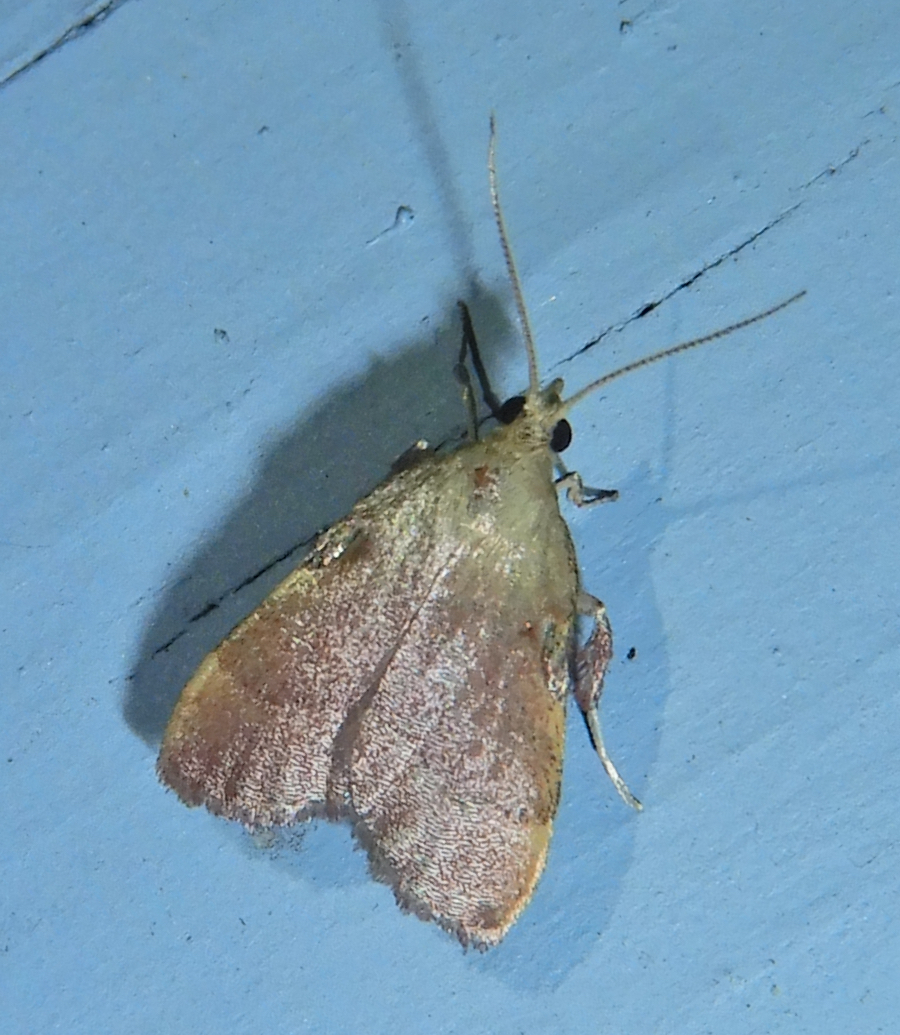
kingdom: Animalia
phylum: Arthropoda
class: Insecta
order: Lepidoptera
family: Pyralidae
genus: Condylolomia
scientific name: Condylolomia participialis
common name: Drab condylolomia moth
